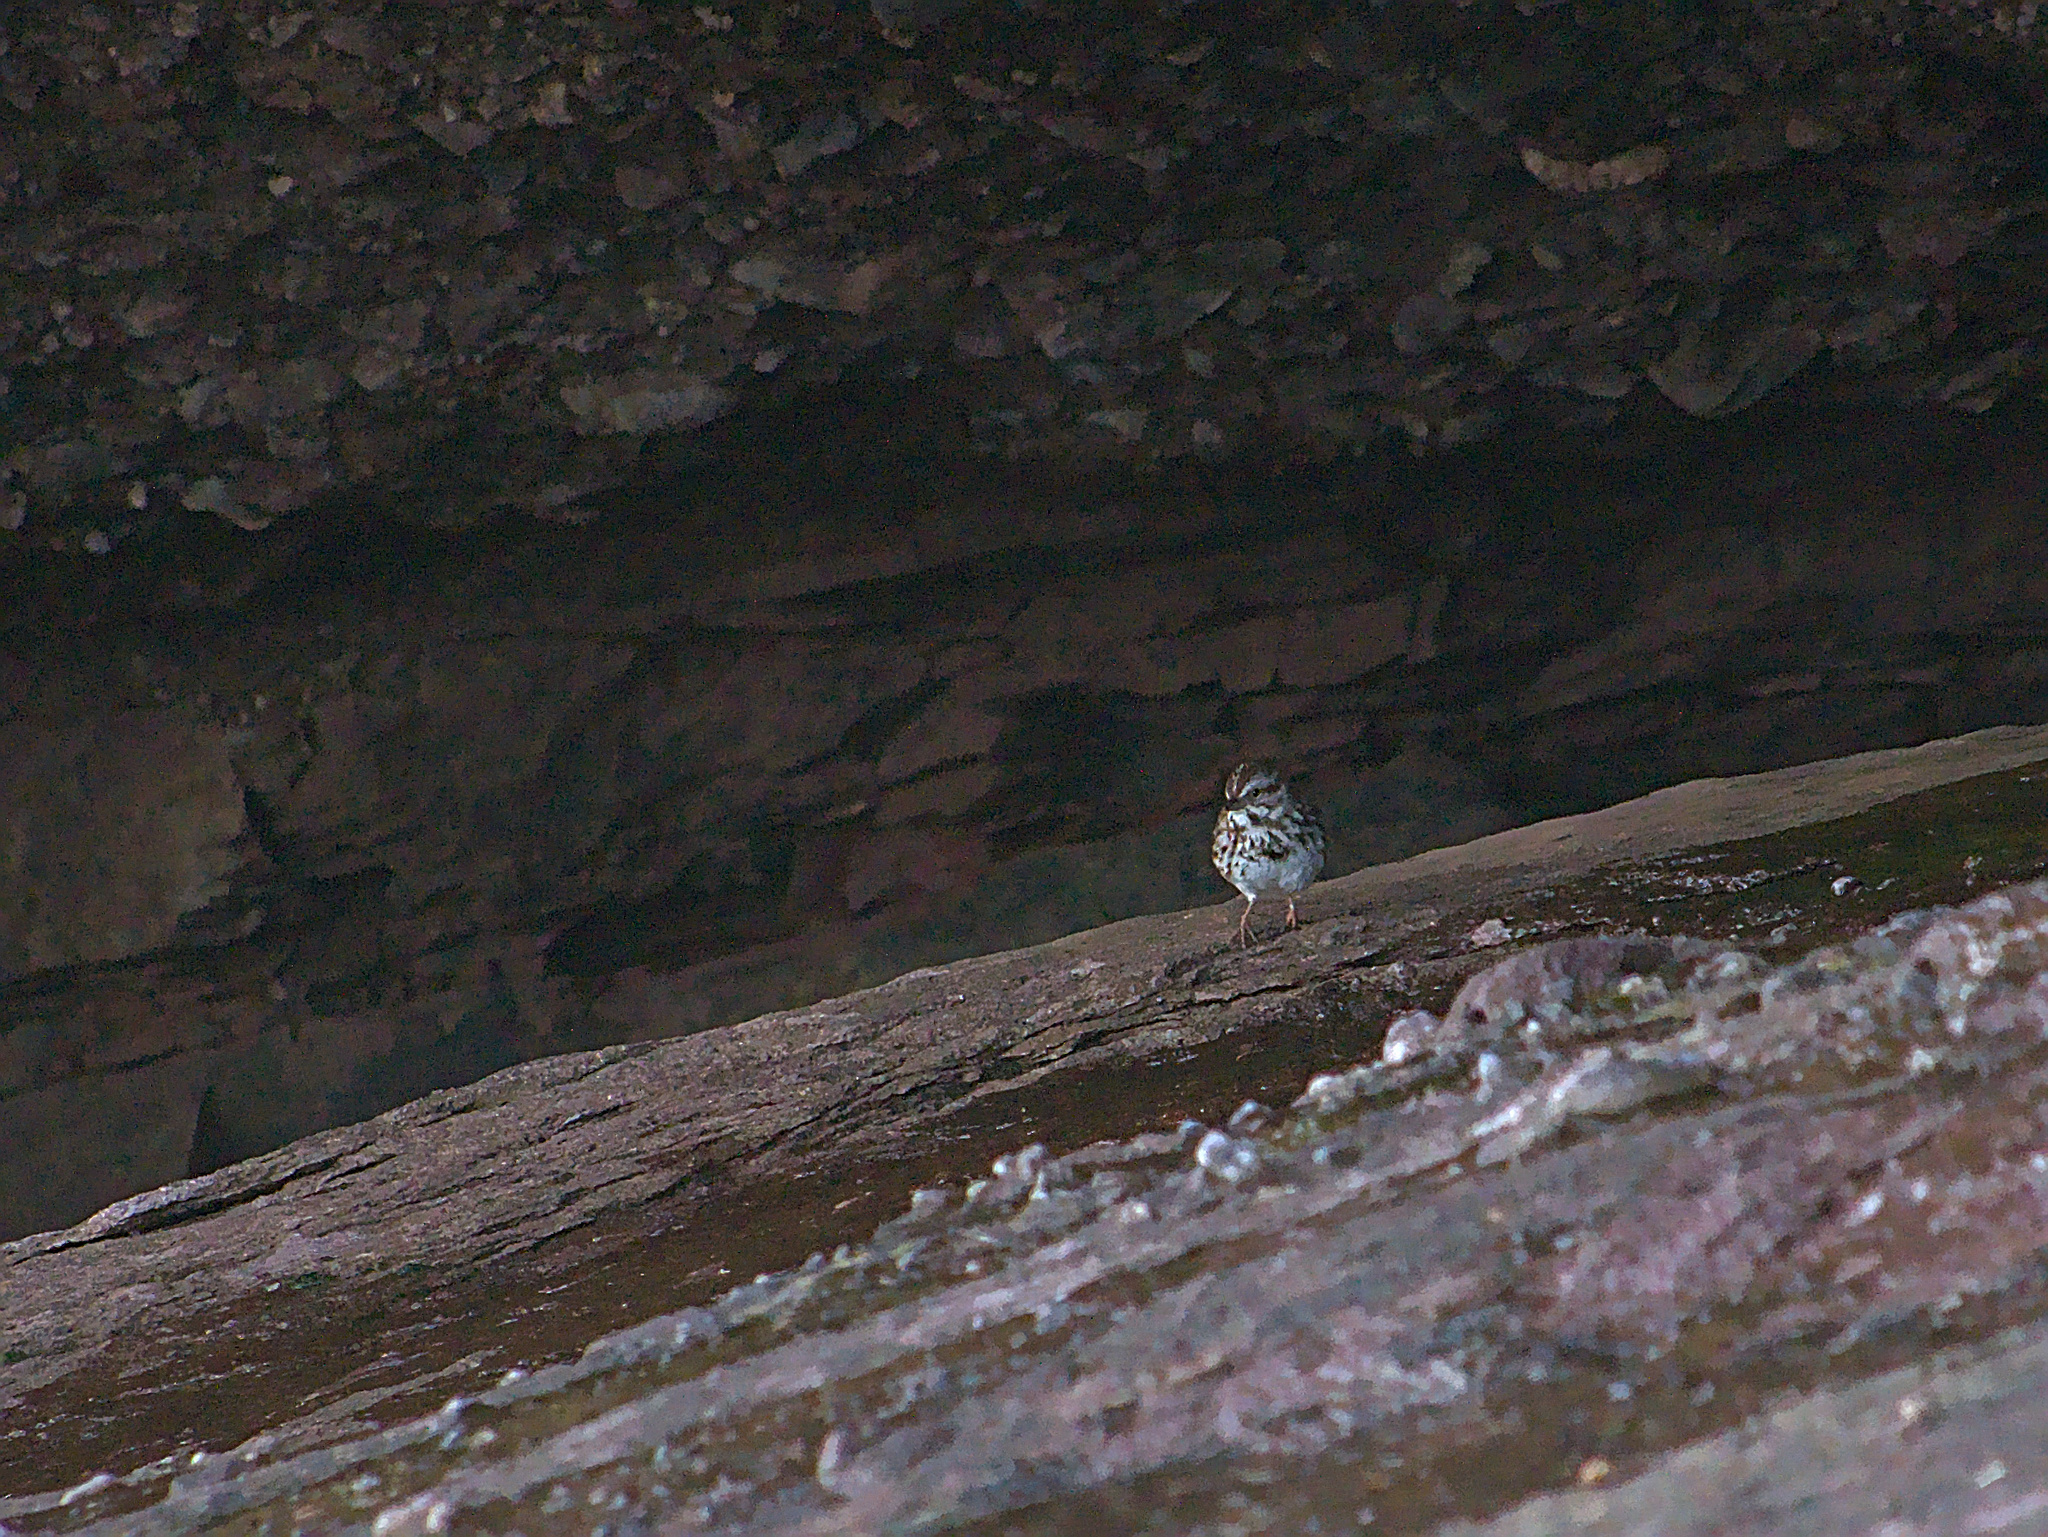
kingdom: Animalia
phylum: Chordata
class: Aves
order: Passeriformes
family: Passerellidae
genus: Melospiza
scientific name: Melospiza melodia
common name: Song sparrow
